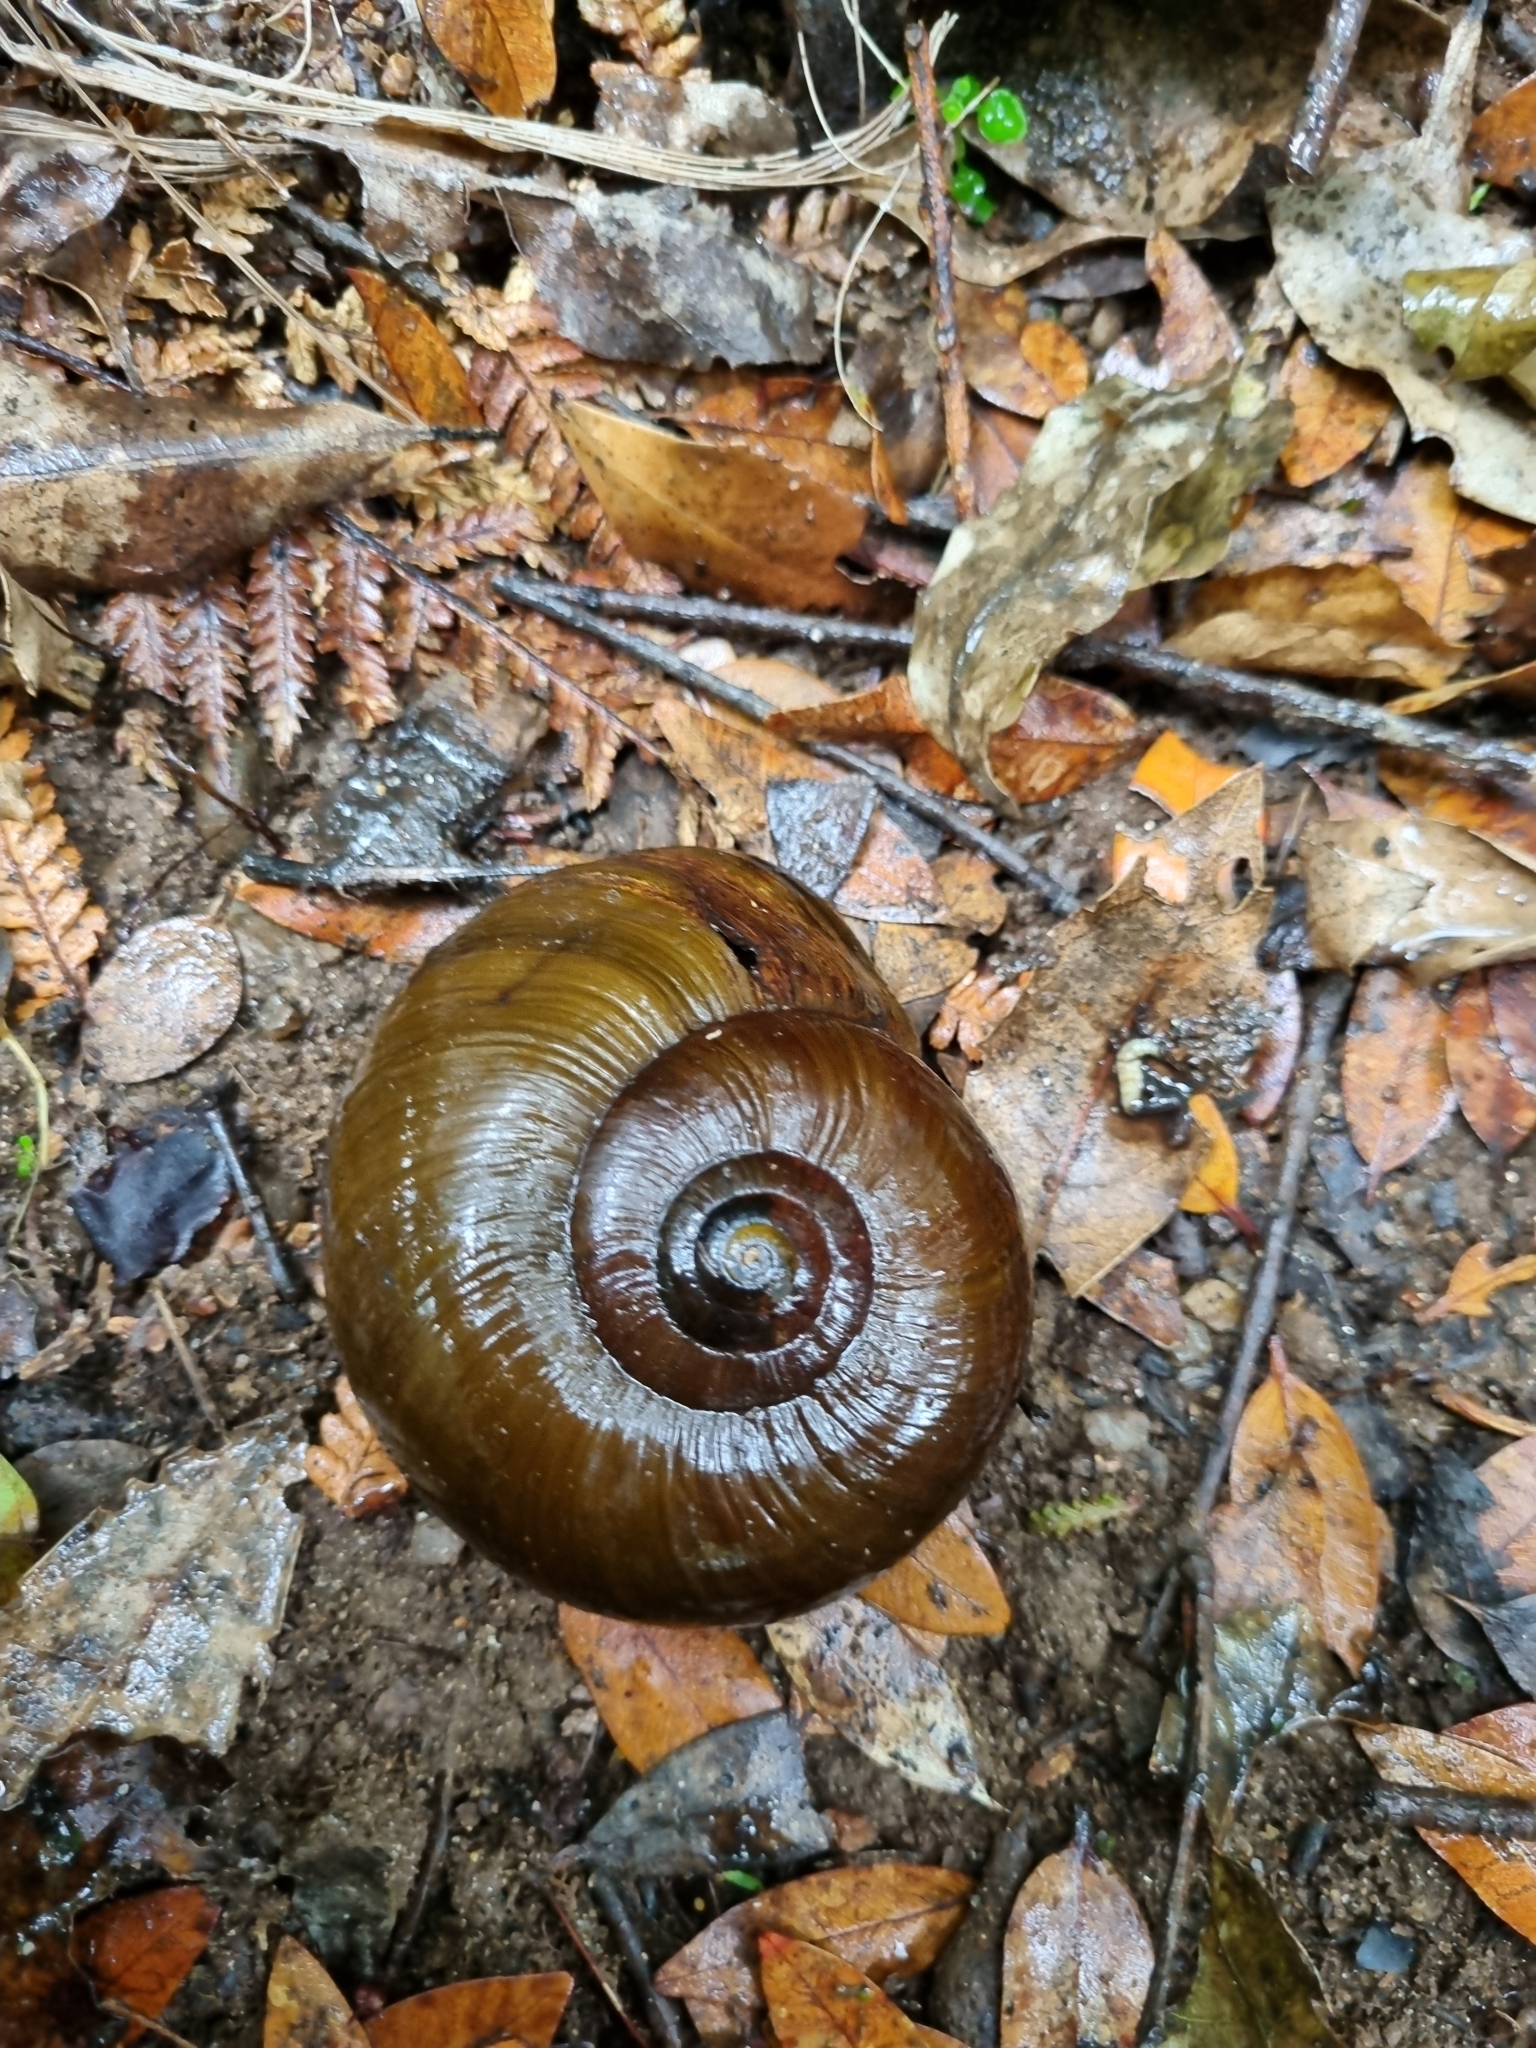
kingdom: Animalia
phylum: Mollusca
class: Gastropoda
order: Stylommatophora
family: Rhytididae
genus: Powelliphanta
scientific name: Powelliphanta superba
